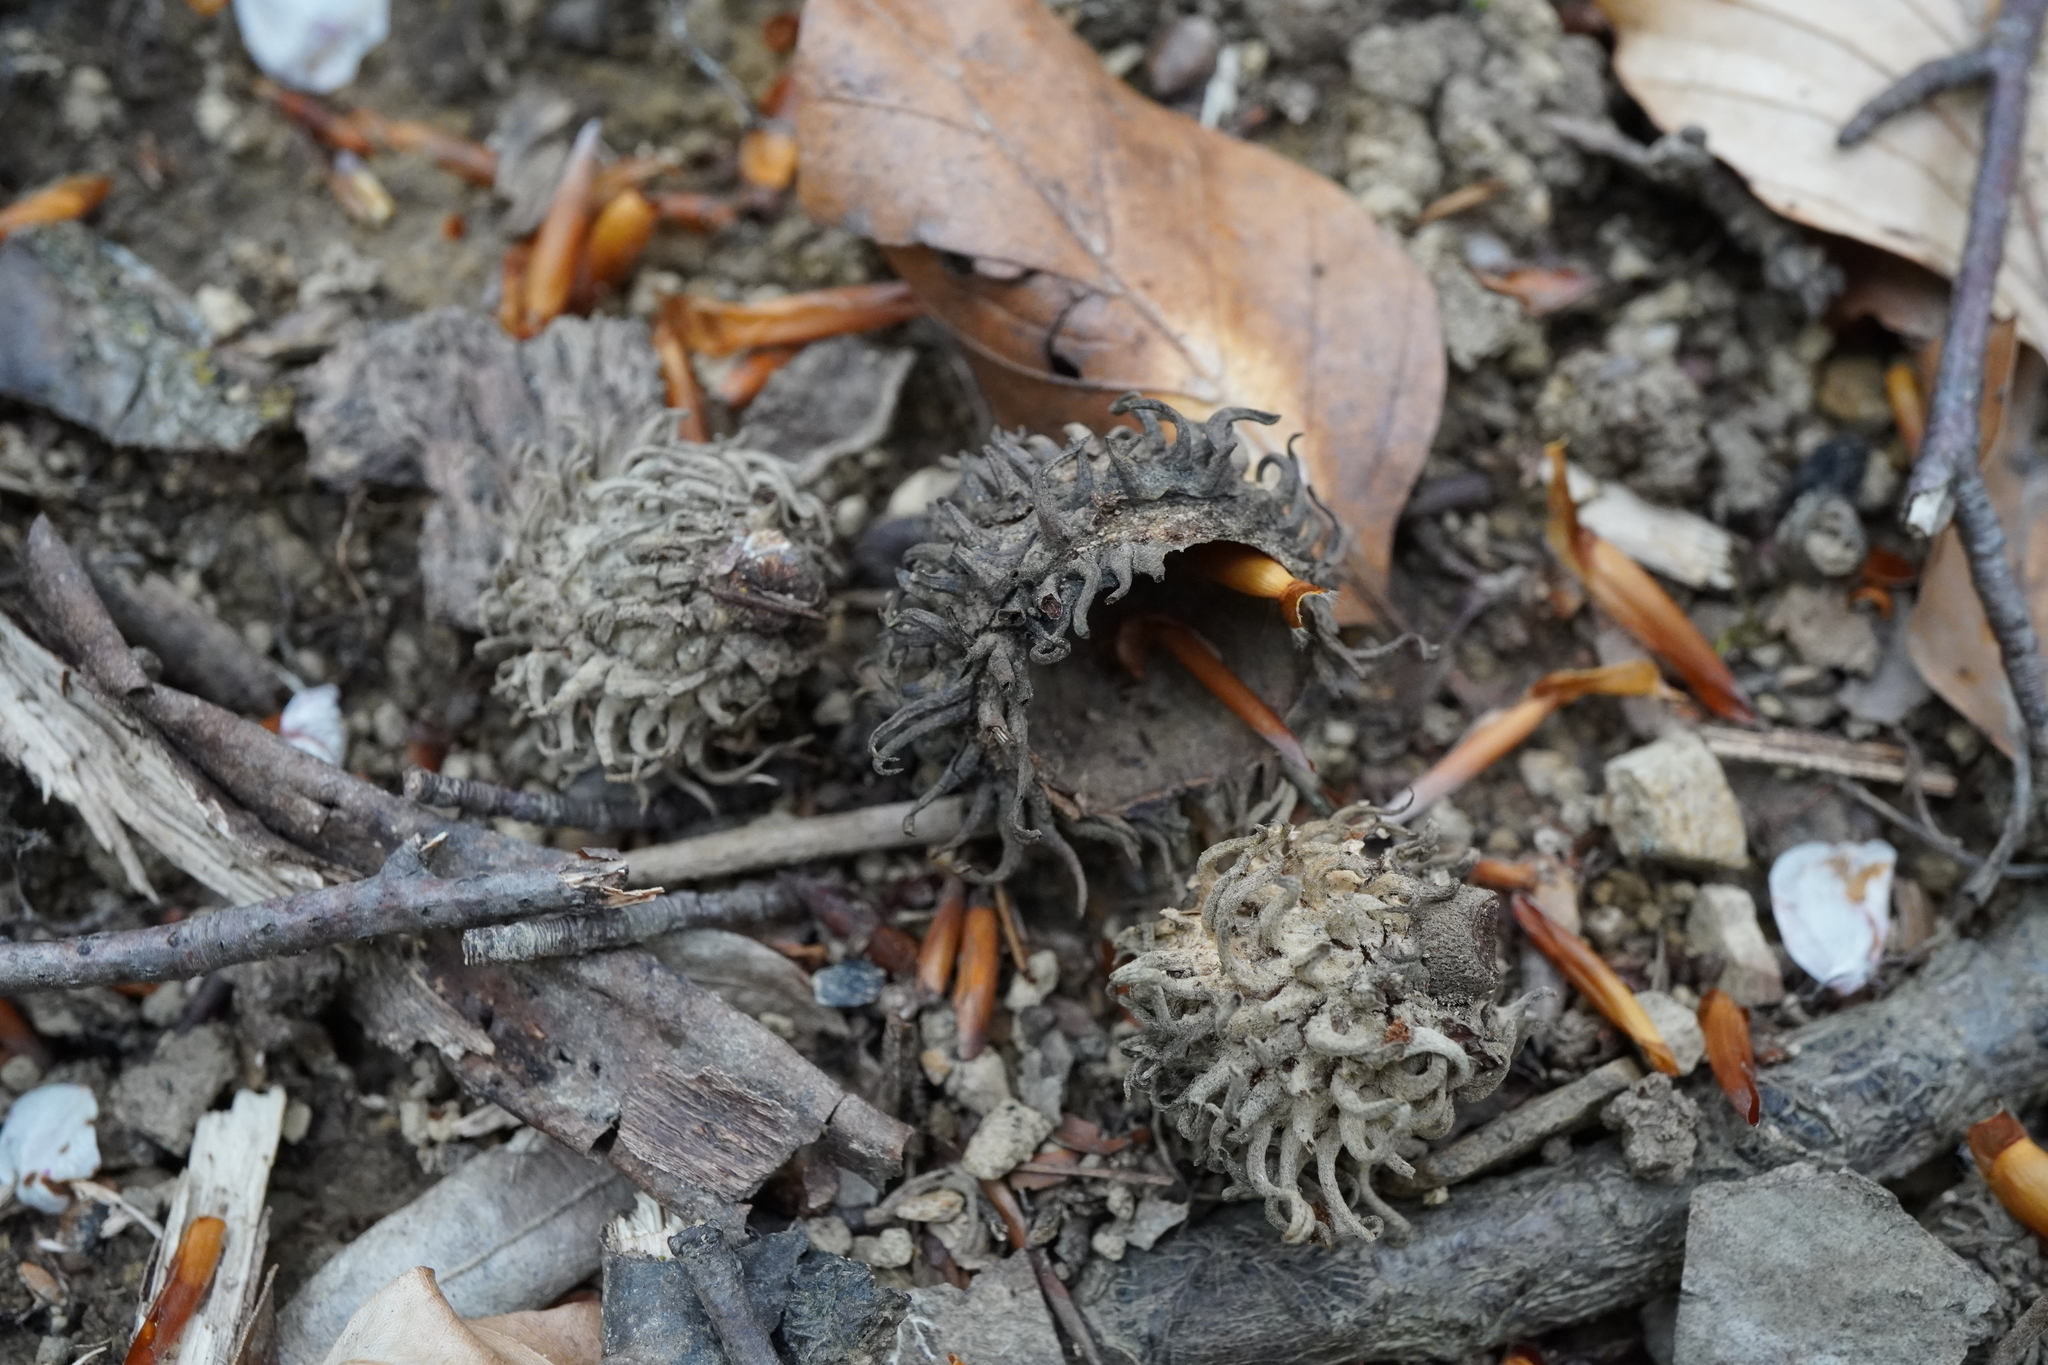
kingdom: Plantae
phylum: Tracheophyta
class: Magnoliopsida
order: Fagales
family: Fagaceae
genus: Quercus
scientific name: Quercus cerris
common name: Turkey oak
